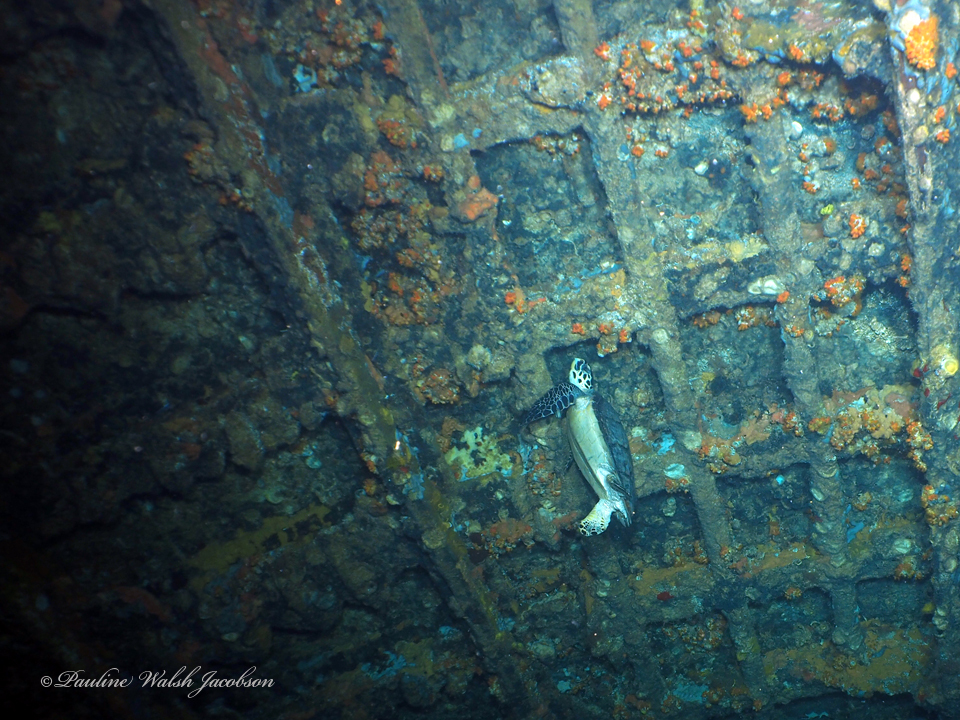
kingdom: Animalia
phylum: Chordata
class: Testudines
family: Cheloniidae
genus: Eretmochelys
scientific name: Eretmochelys imbricata
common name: Hawksbill turtle
